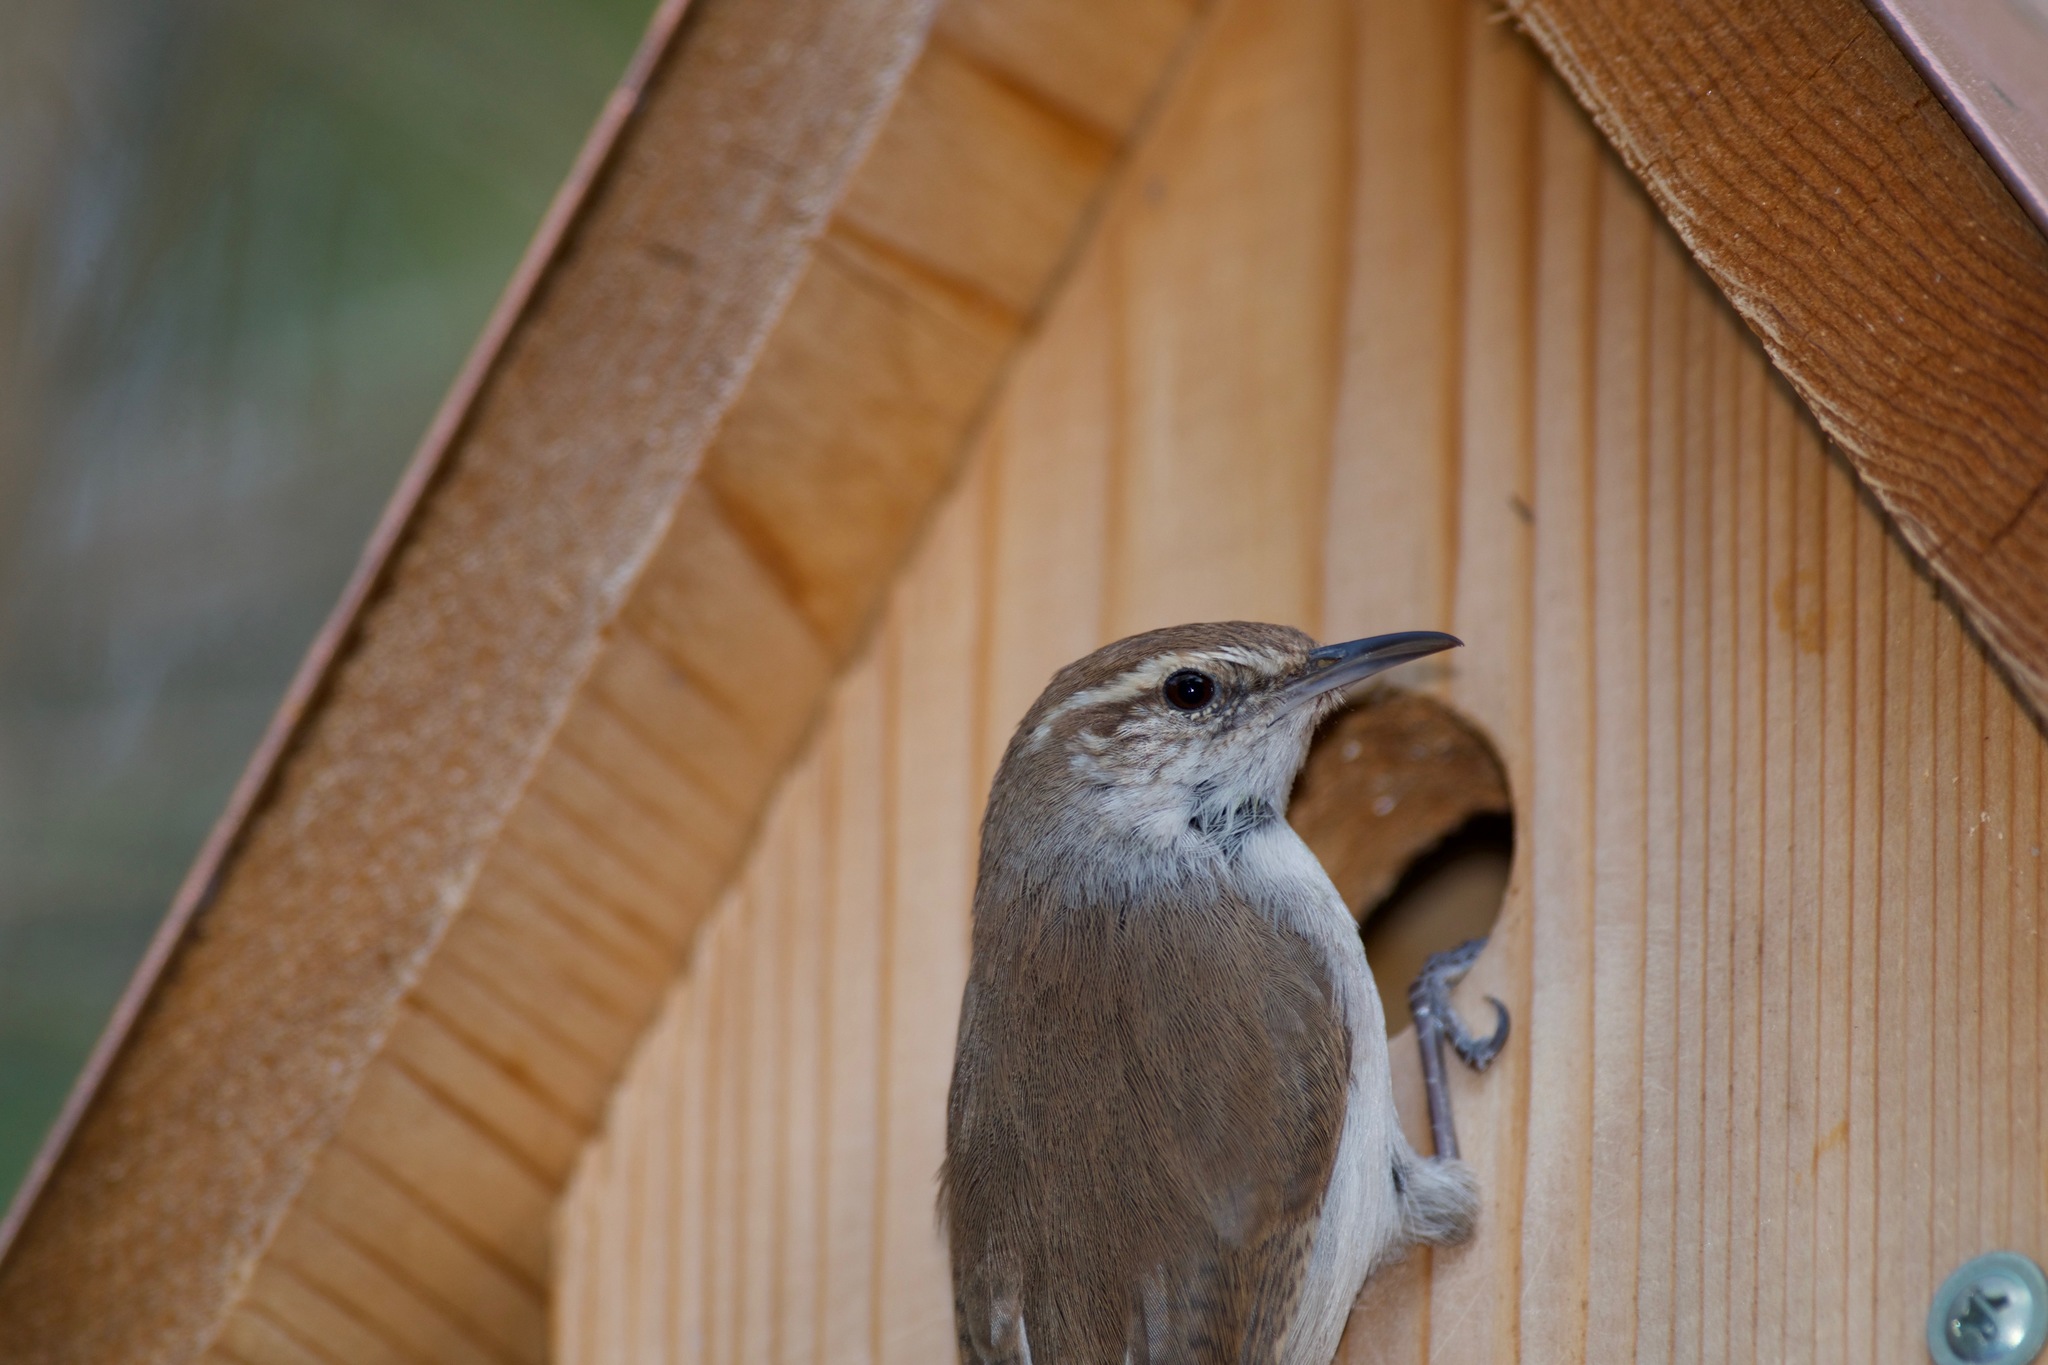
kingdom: Animalia
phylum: Chordata
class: Aves
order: Passeriformes
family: Troglodytidae
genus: Thryomanes
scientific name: Thryomanes bewickii
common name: Bewick's wren
